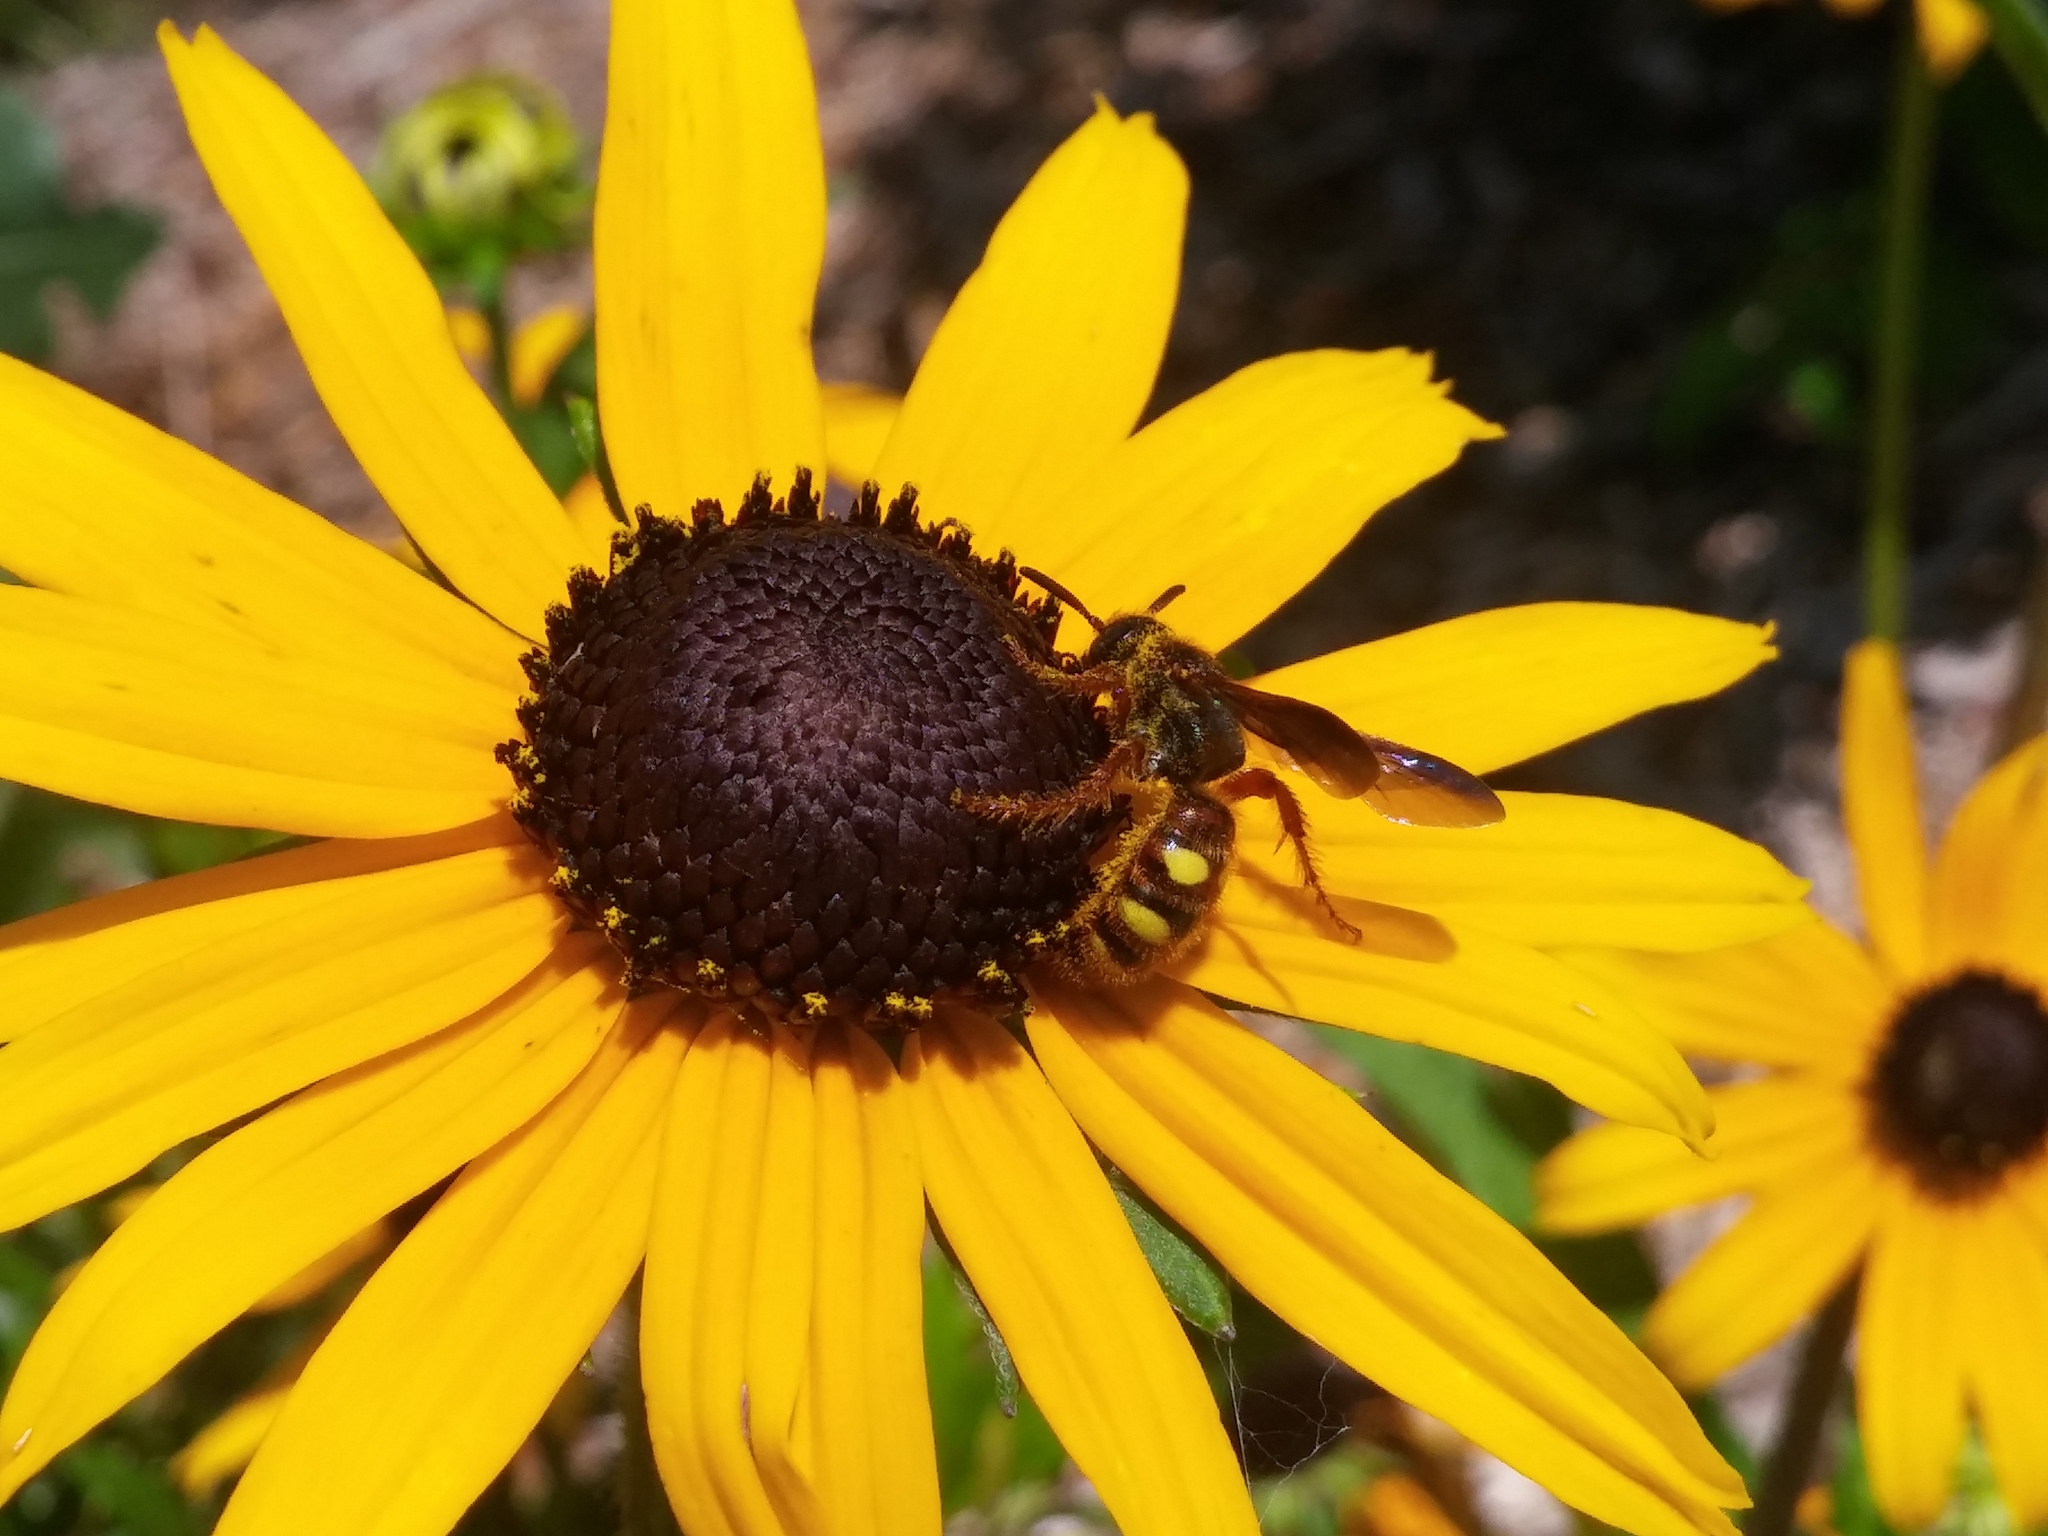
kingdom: Animalia
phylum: Arthropoda
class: Insecta
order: Hymenoptera
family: Scoliidae
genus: Scolia
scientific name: Scolia nobilitata
